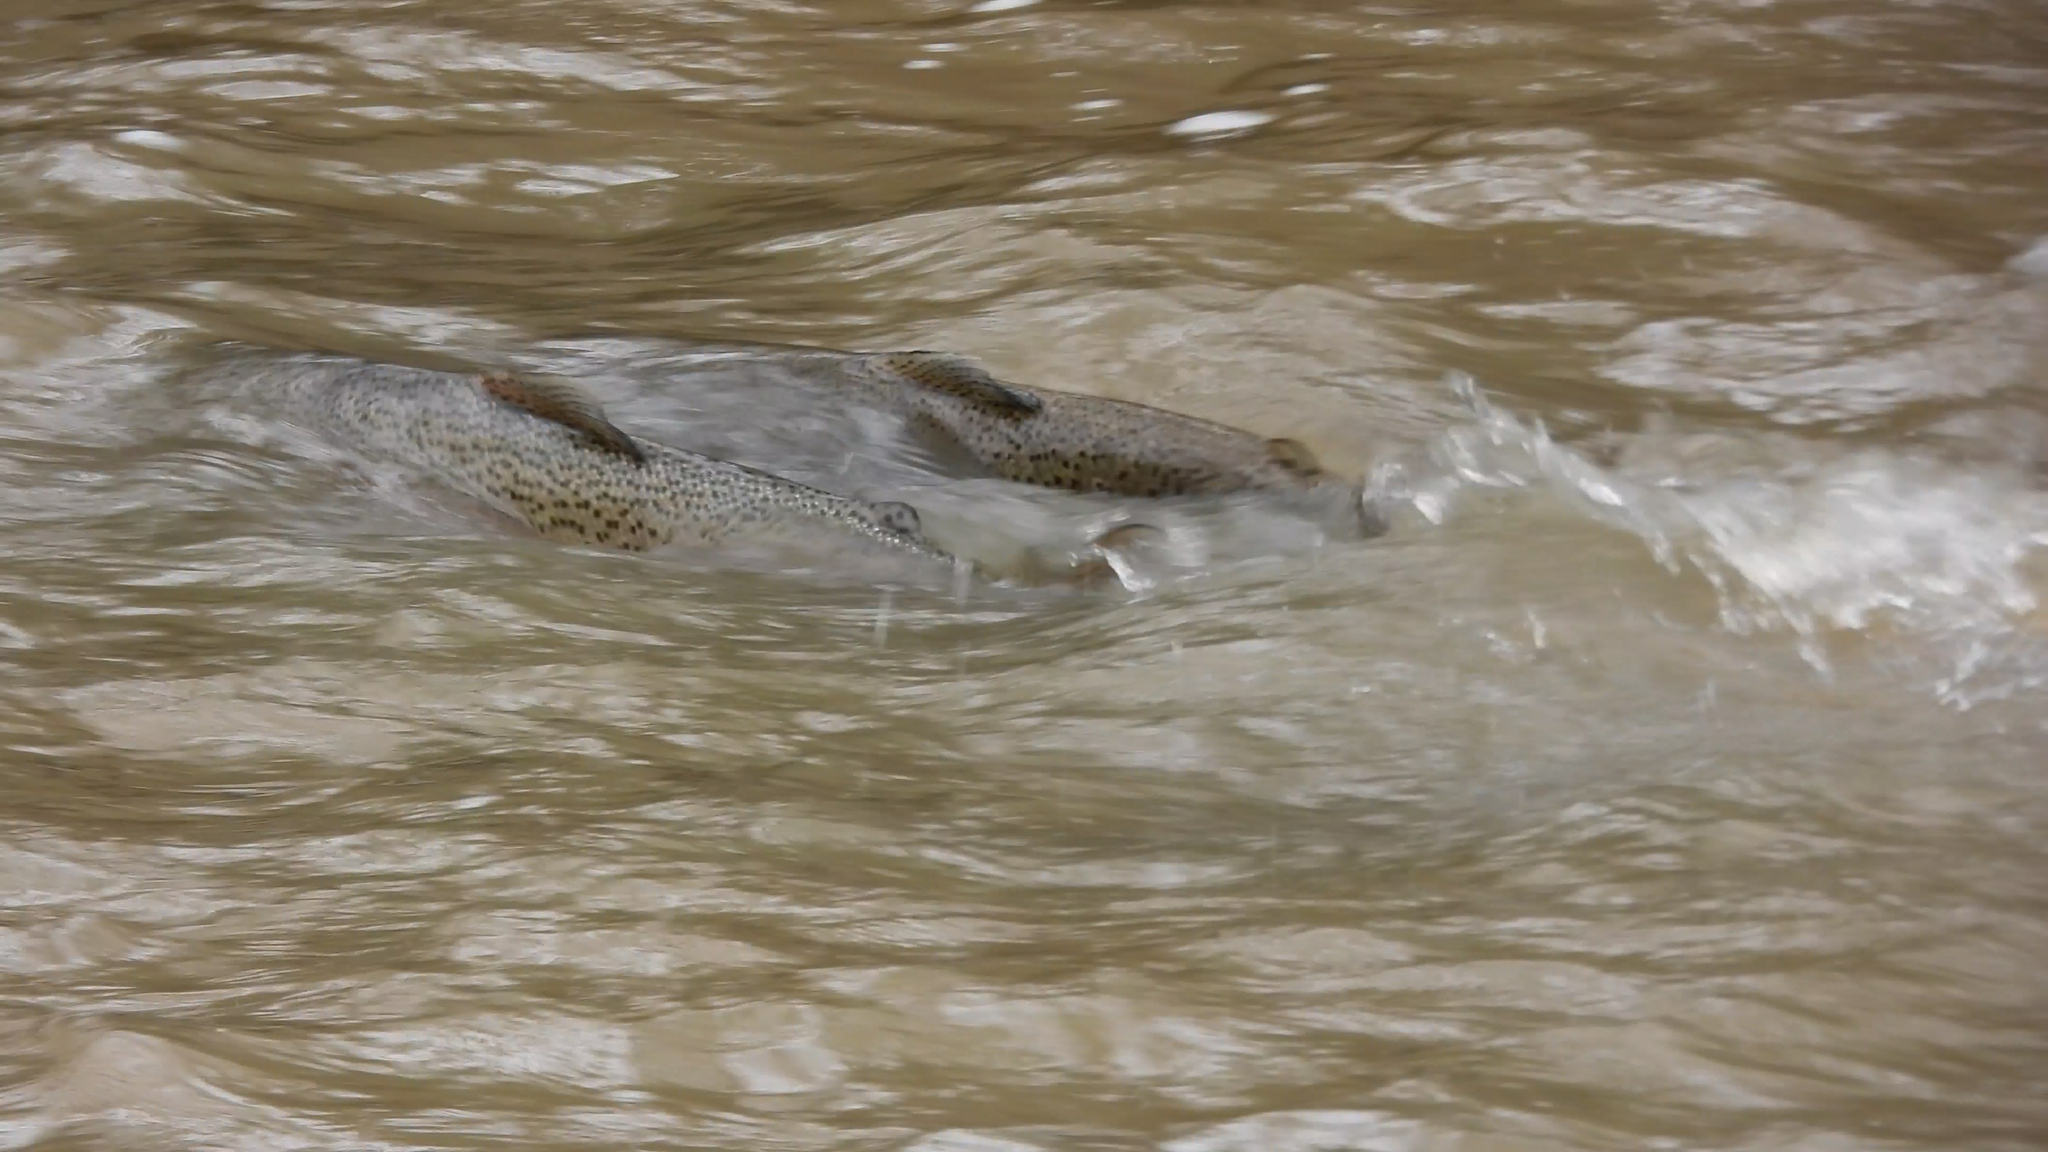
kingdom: Animalia
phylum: Chordata
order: Salmoniformes
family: Salmonidae
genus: Oncorhynchus
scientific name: Oncorhynchus mykiss
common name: Rainbow trout
